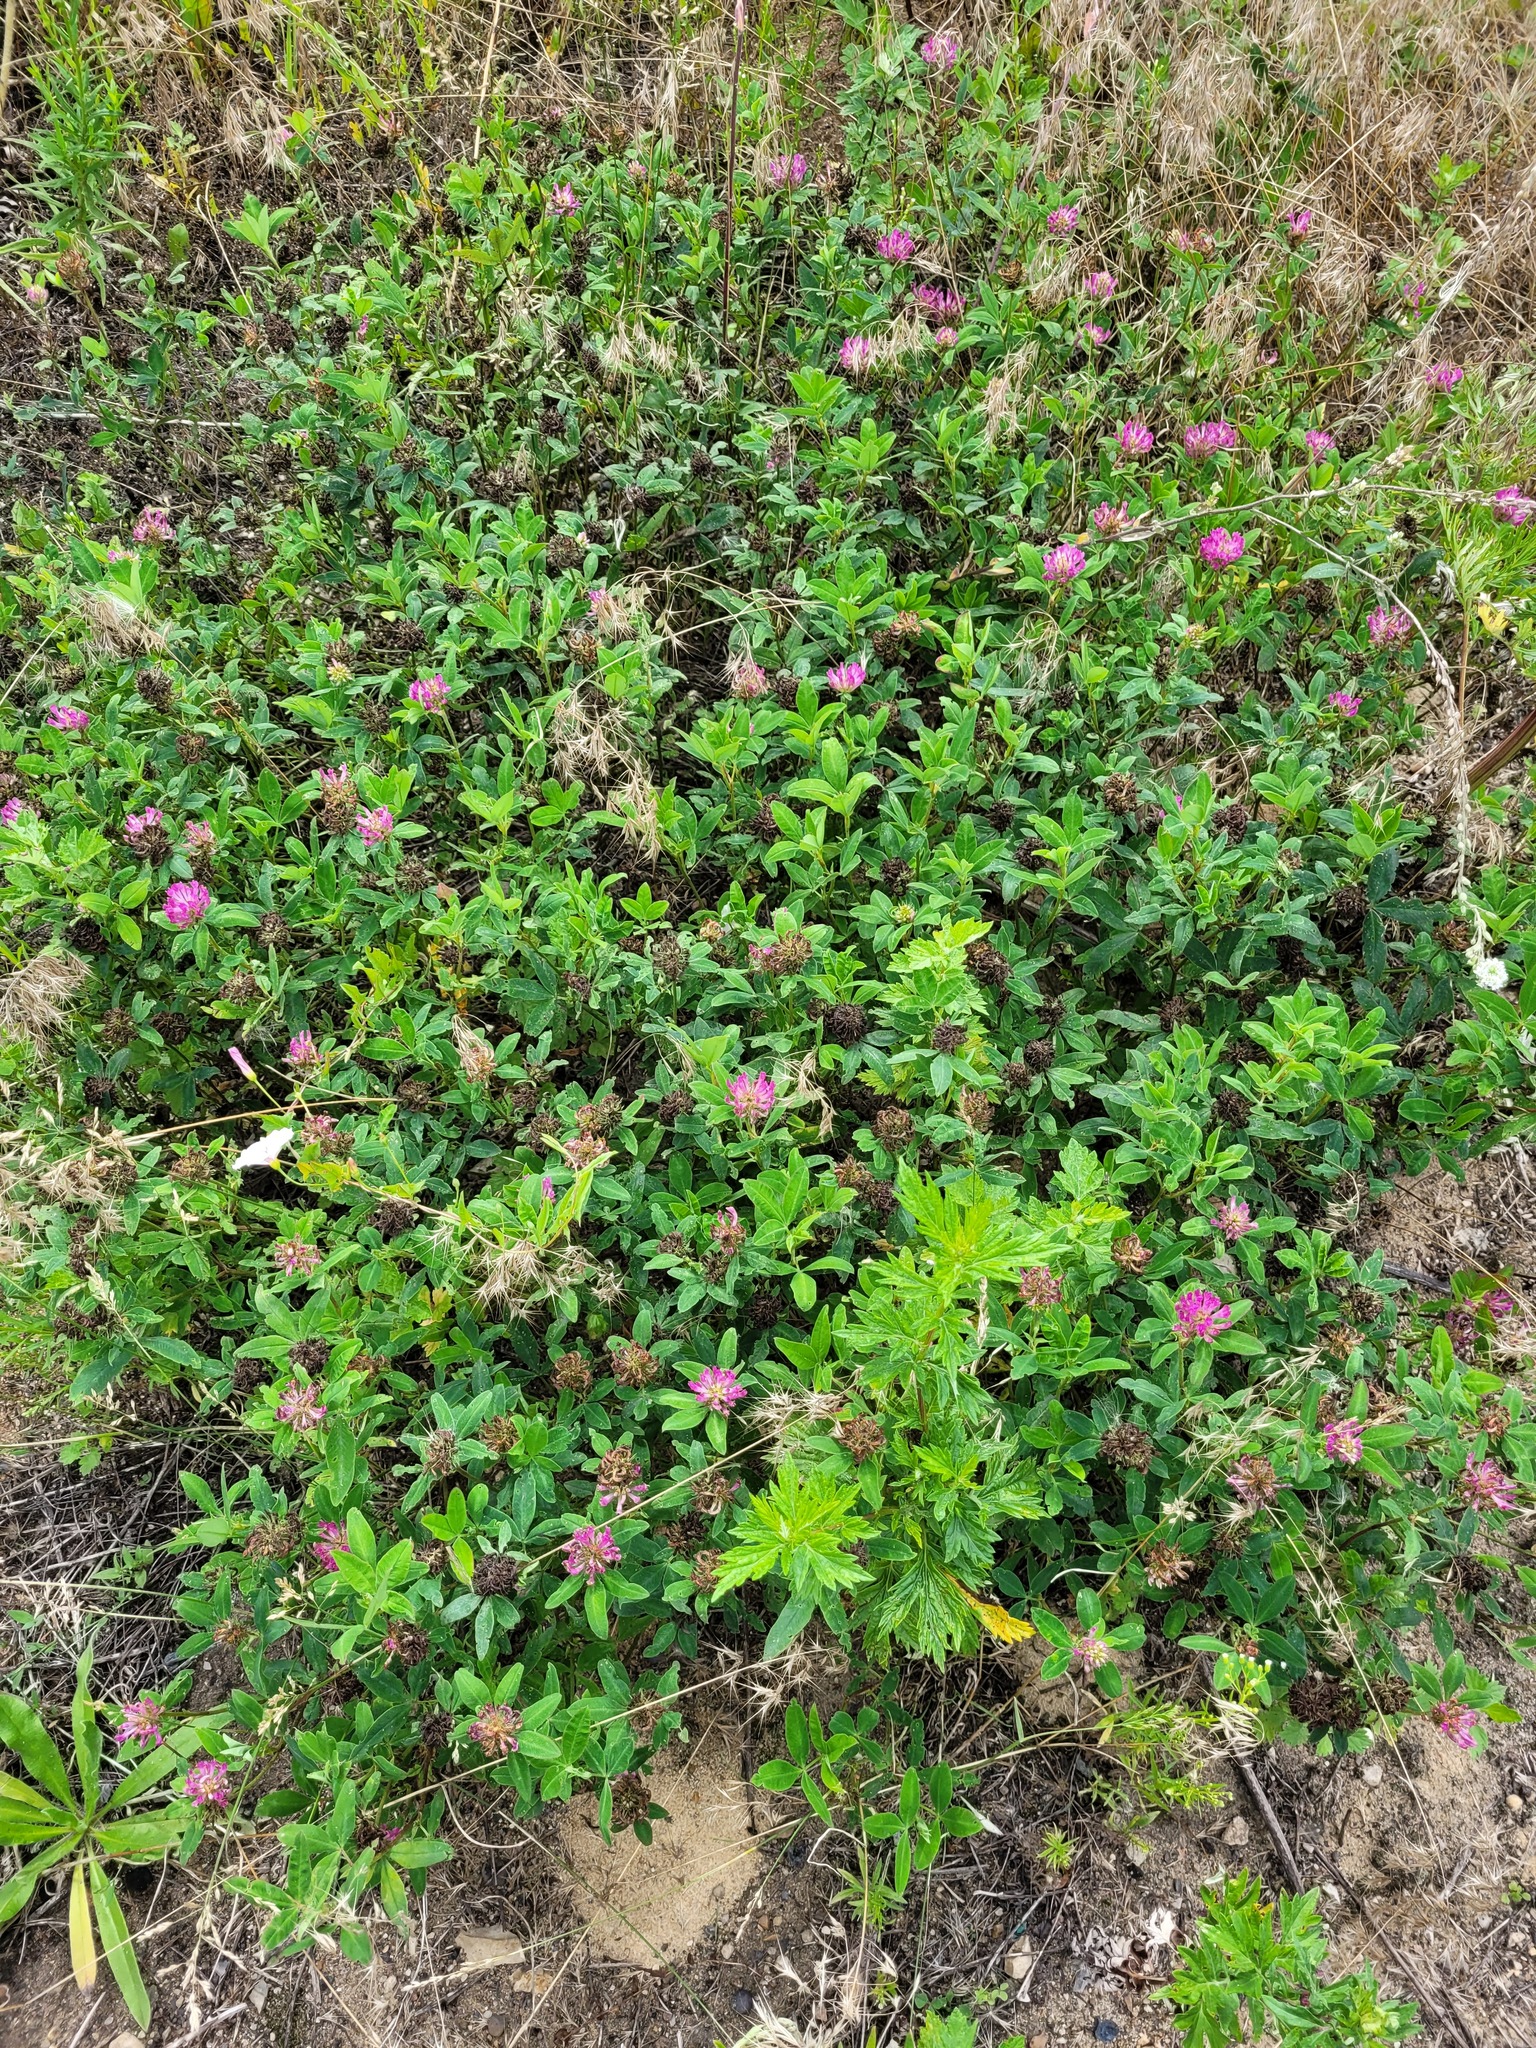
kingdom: Plantae
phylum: Tracheophyta
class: Magnoliopsida
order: Fabales
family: Fabaceae
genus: Trifolium
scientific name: Trifolium medium
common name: Zigzag clover
